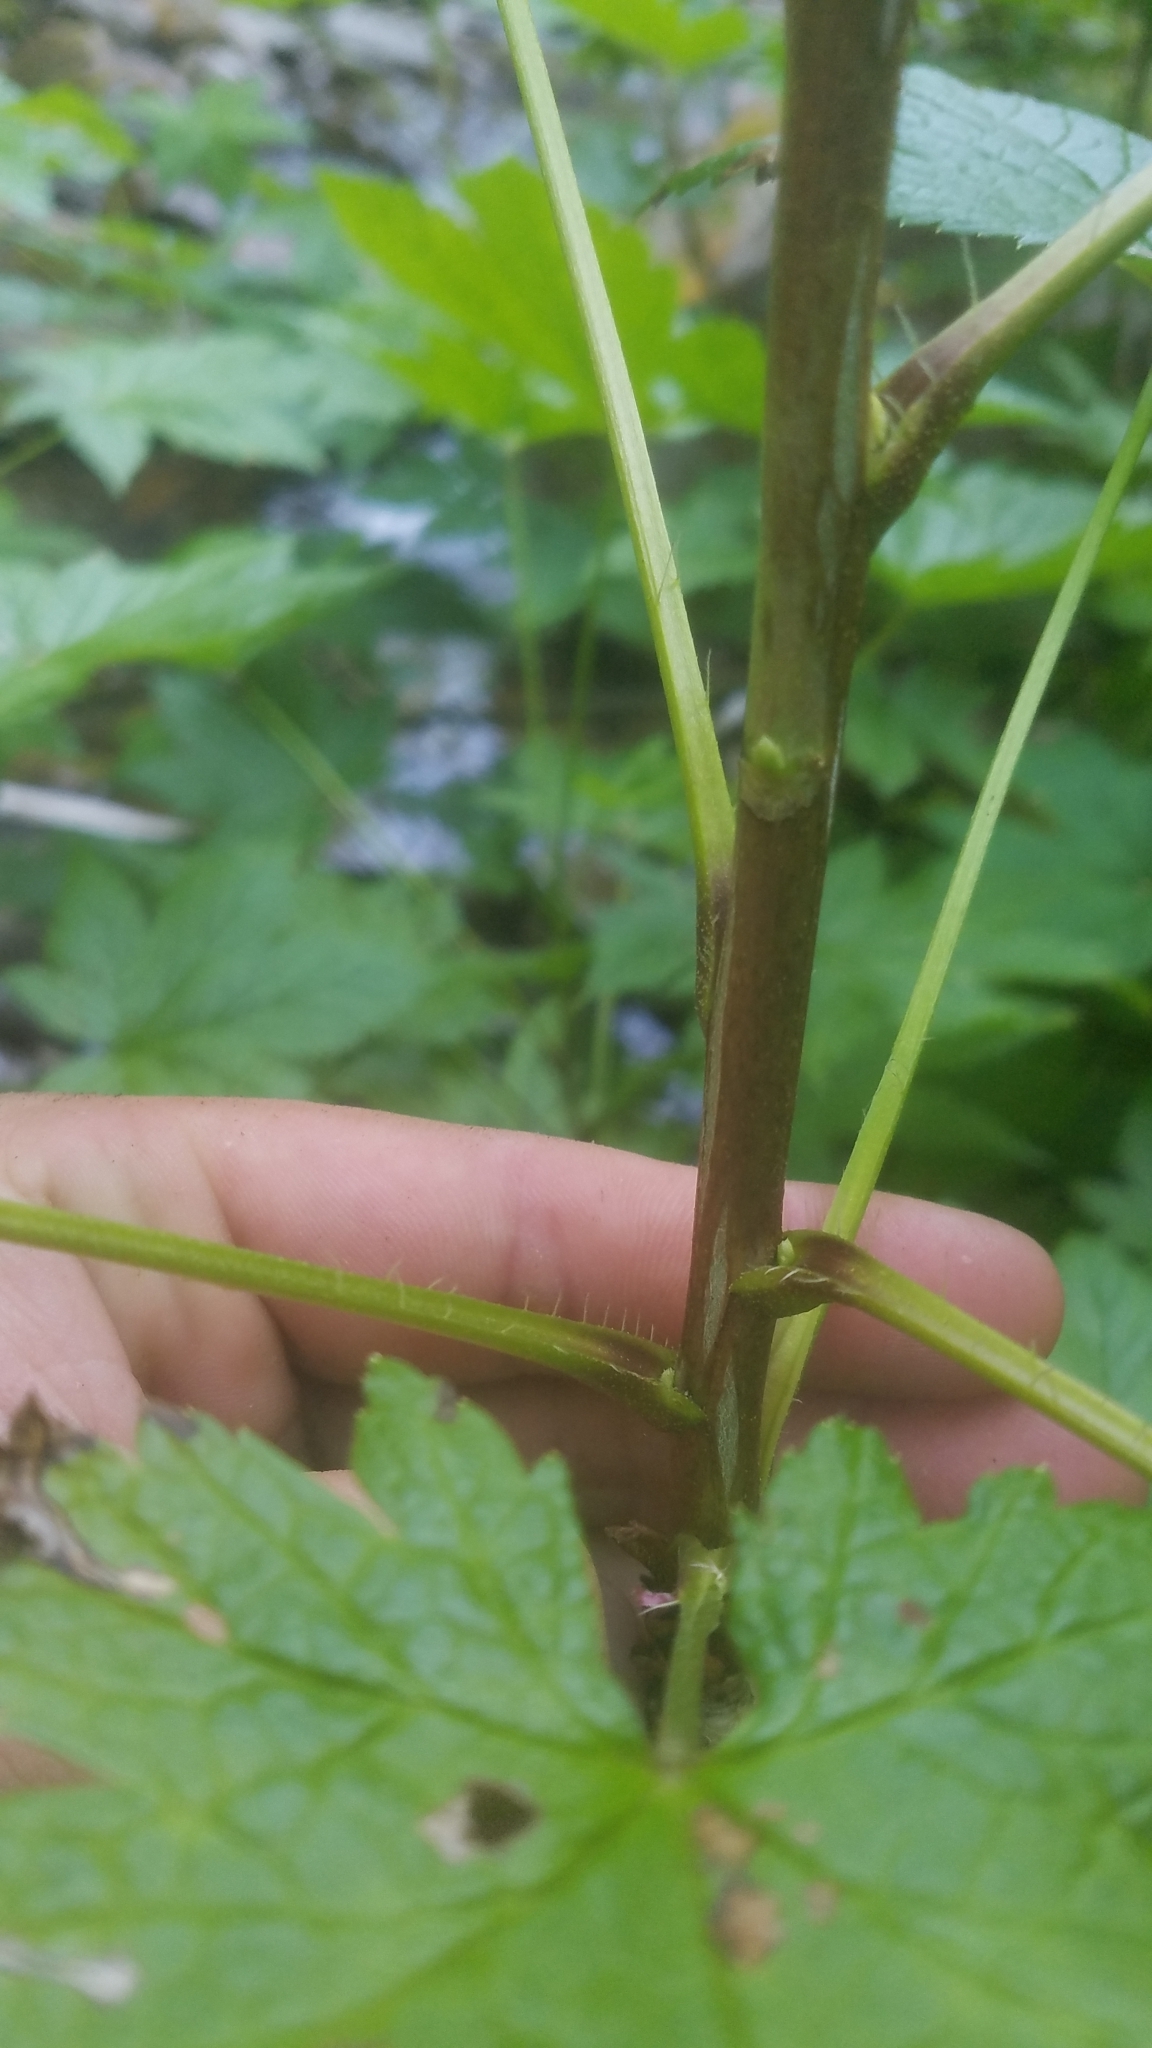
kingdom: Plantae
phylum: Tracheophyta
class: Magnoliopsida
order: Saxifragales
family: Grossulariaceae
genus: Ribes
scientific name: Ribes bracteosum
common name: California black currant
